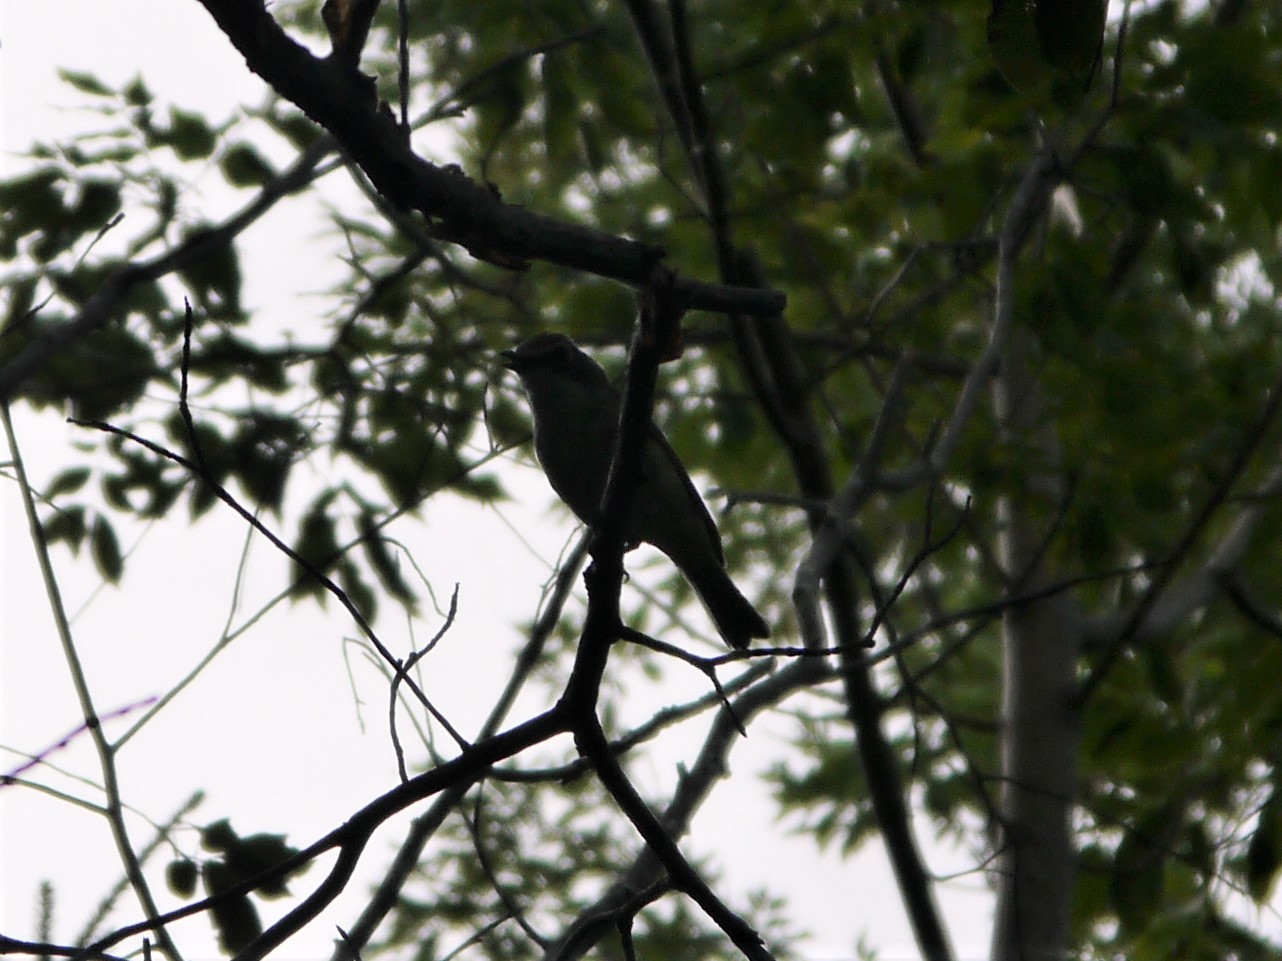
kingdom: Animalia
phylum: Chordata
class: Aves
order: Passeriformes
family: Vireonidae
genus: Vireo
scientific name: Vireo solitarius
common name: Blue-headed vireo
